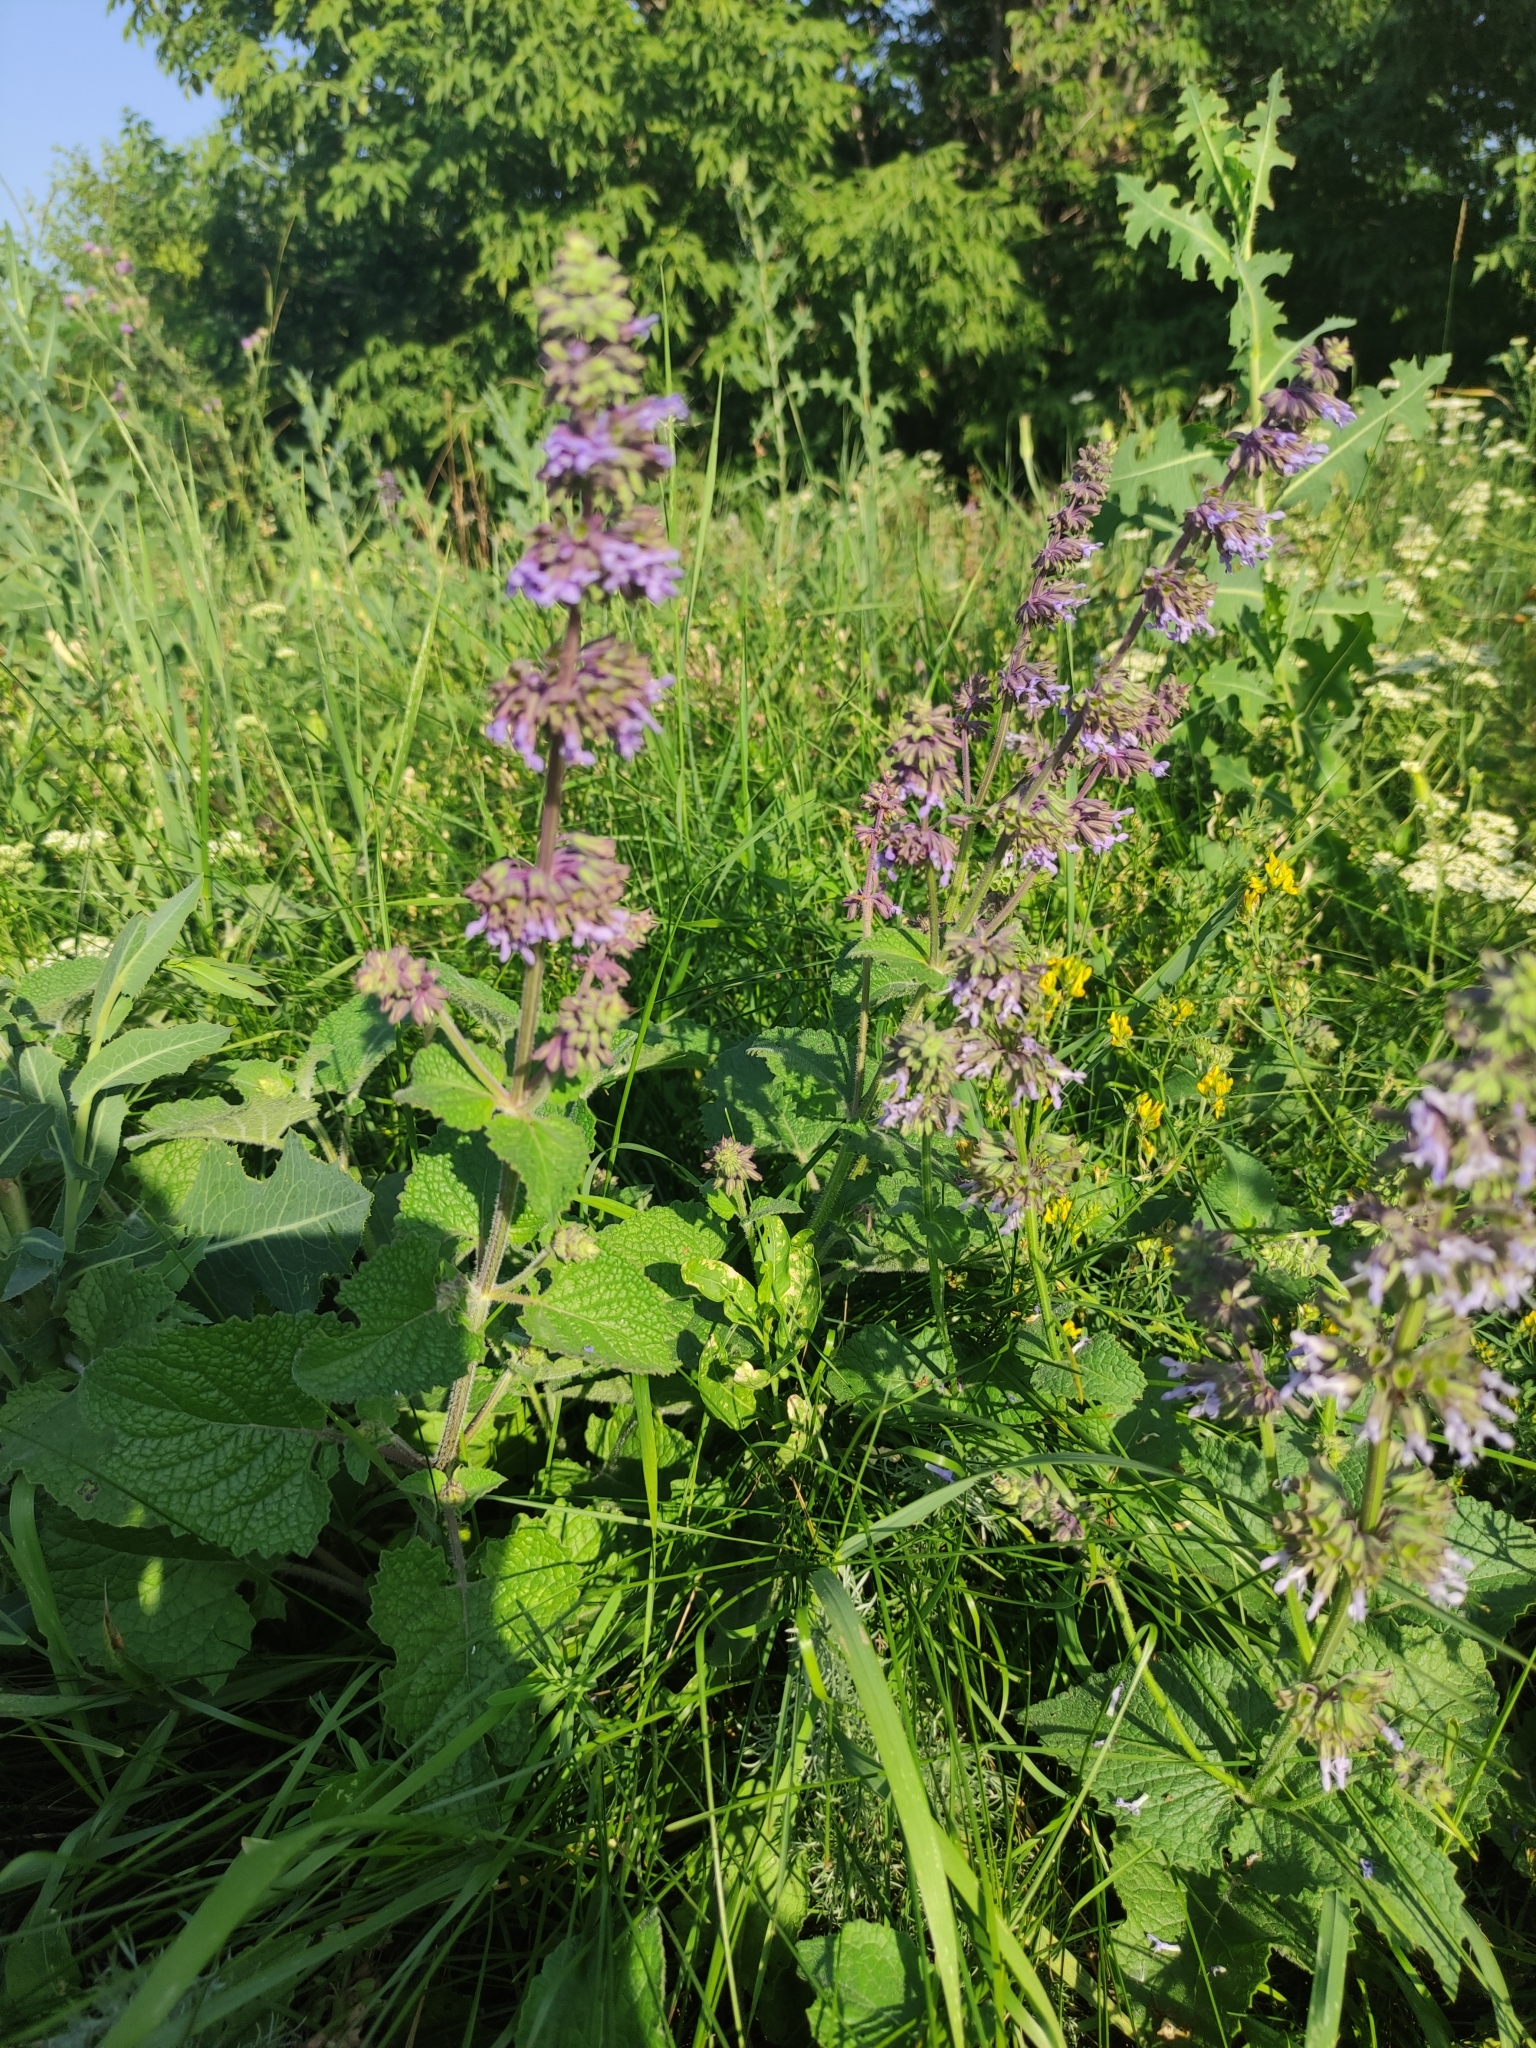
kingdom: Plantae
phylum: Tracheophyta
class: Magnoliopsida
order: Lamiales
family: Lamiaceae
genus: Salvia
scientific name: Salvia verticillata
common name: Whorled clary
